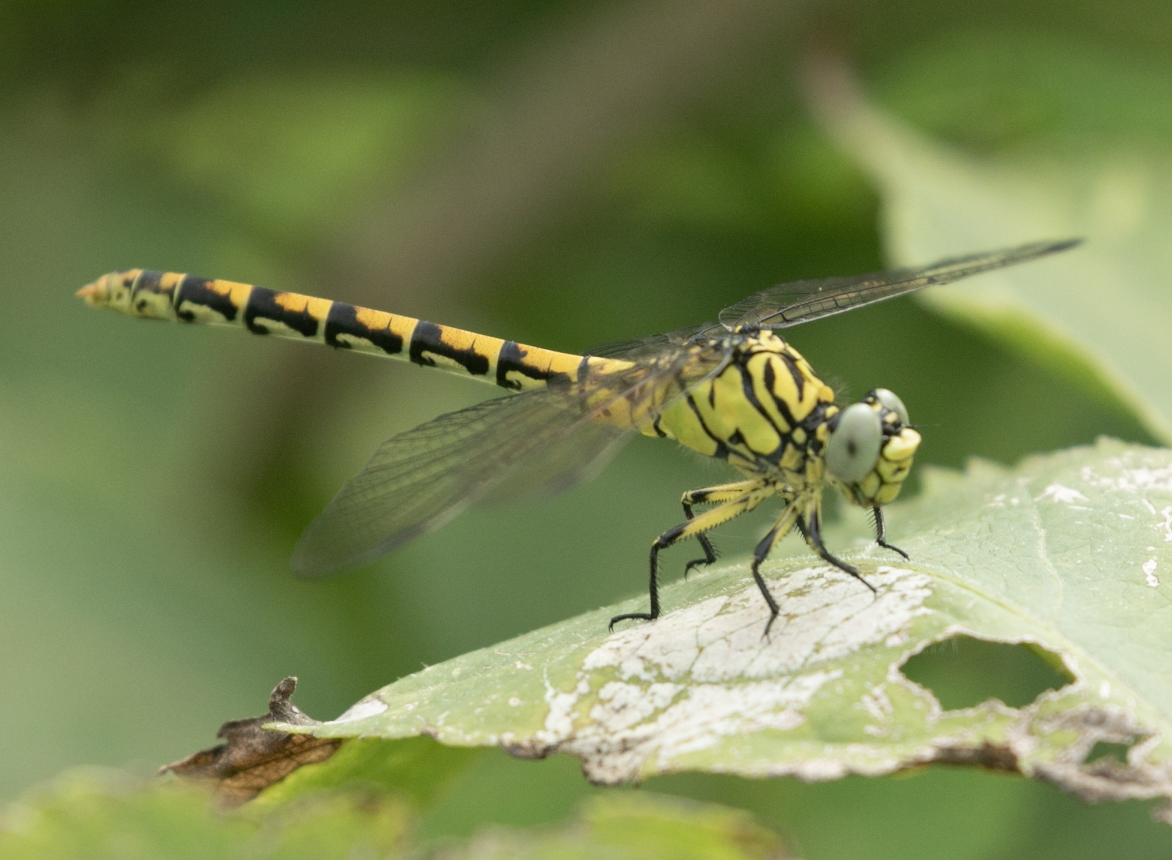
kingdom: Animalia
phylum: Arthropoda
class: Insecta
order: Odonata
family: Gomphidae
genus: Onychogomphus
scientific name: Onychogomphus forcipatus
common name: Small pincertail
